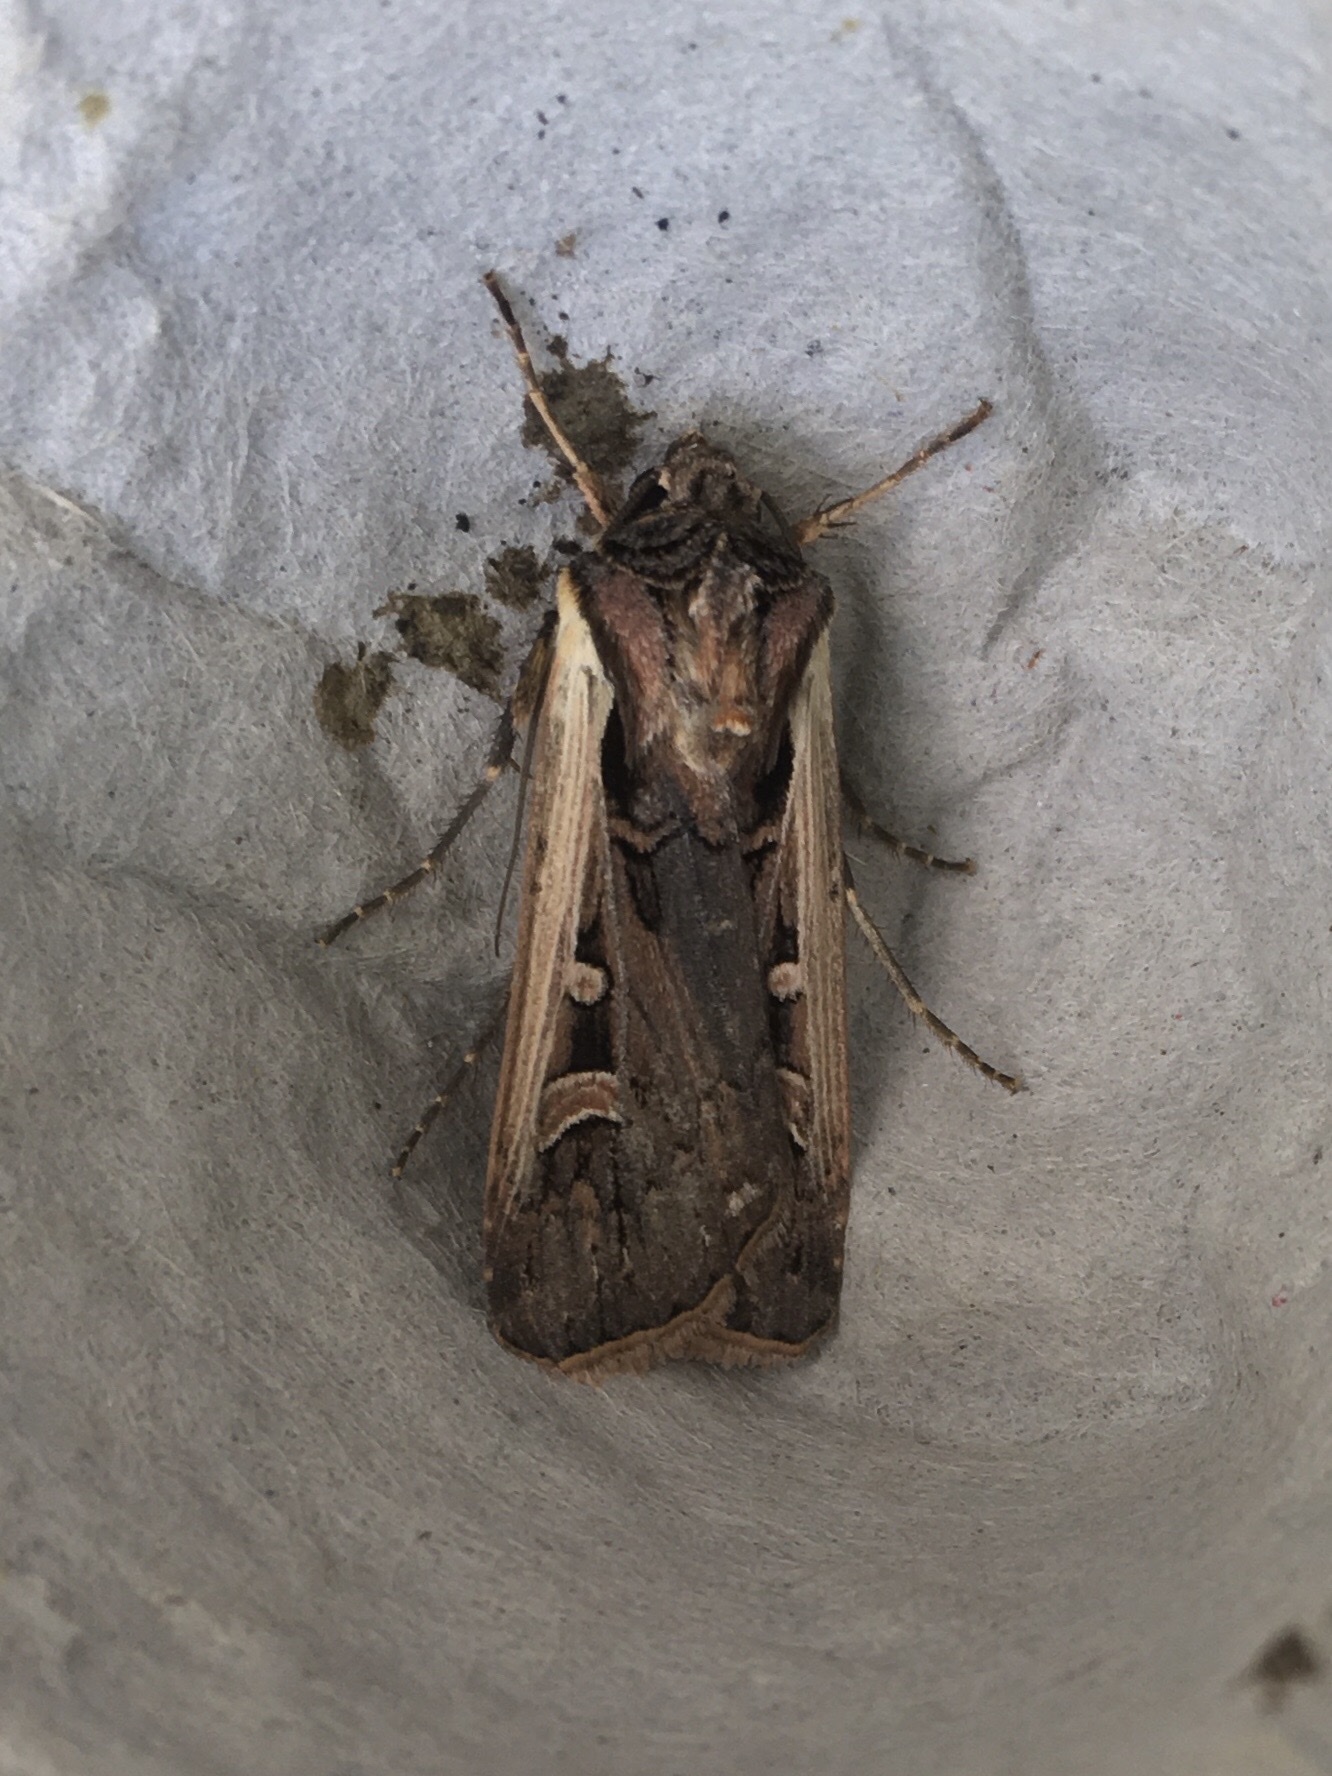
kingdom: Animalia
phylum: Arthropoda
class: Insecta
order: Lepidoptera
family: Noctuidae
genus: Striacosta
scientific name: Striacosta albicosta
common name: Western bean cutworm moth
